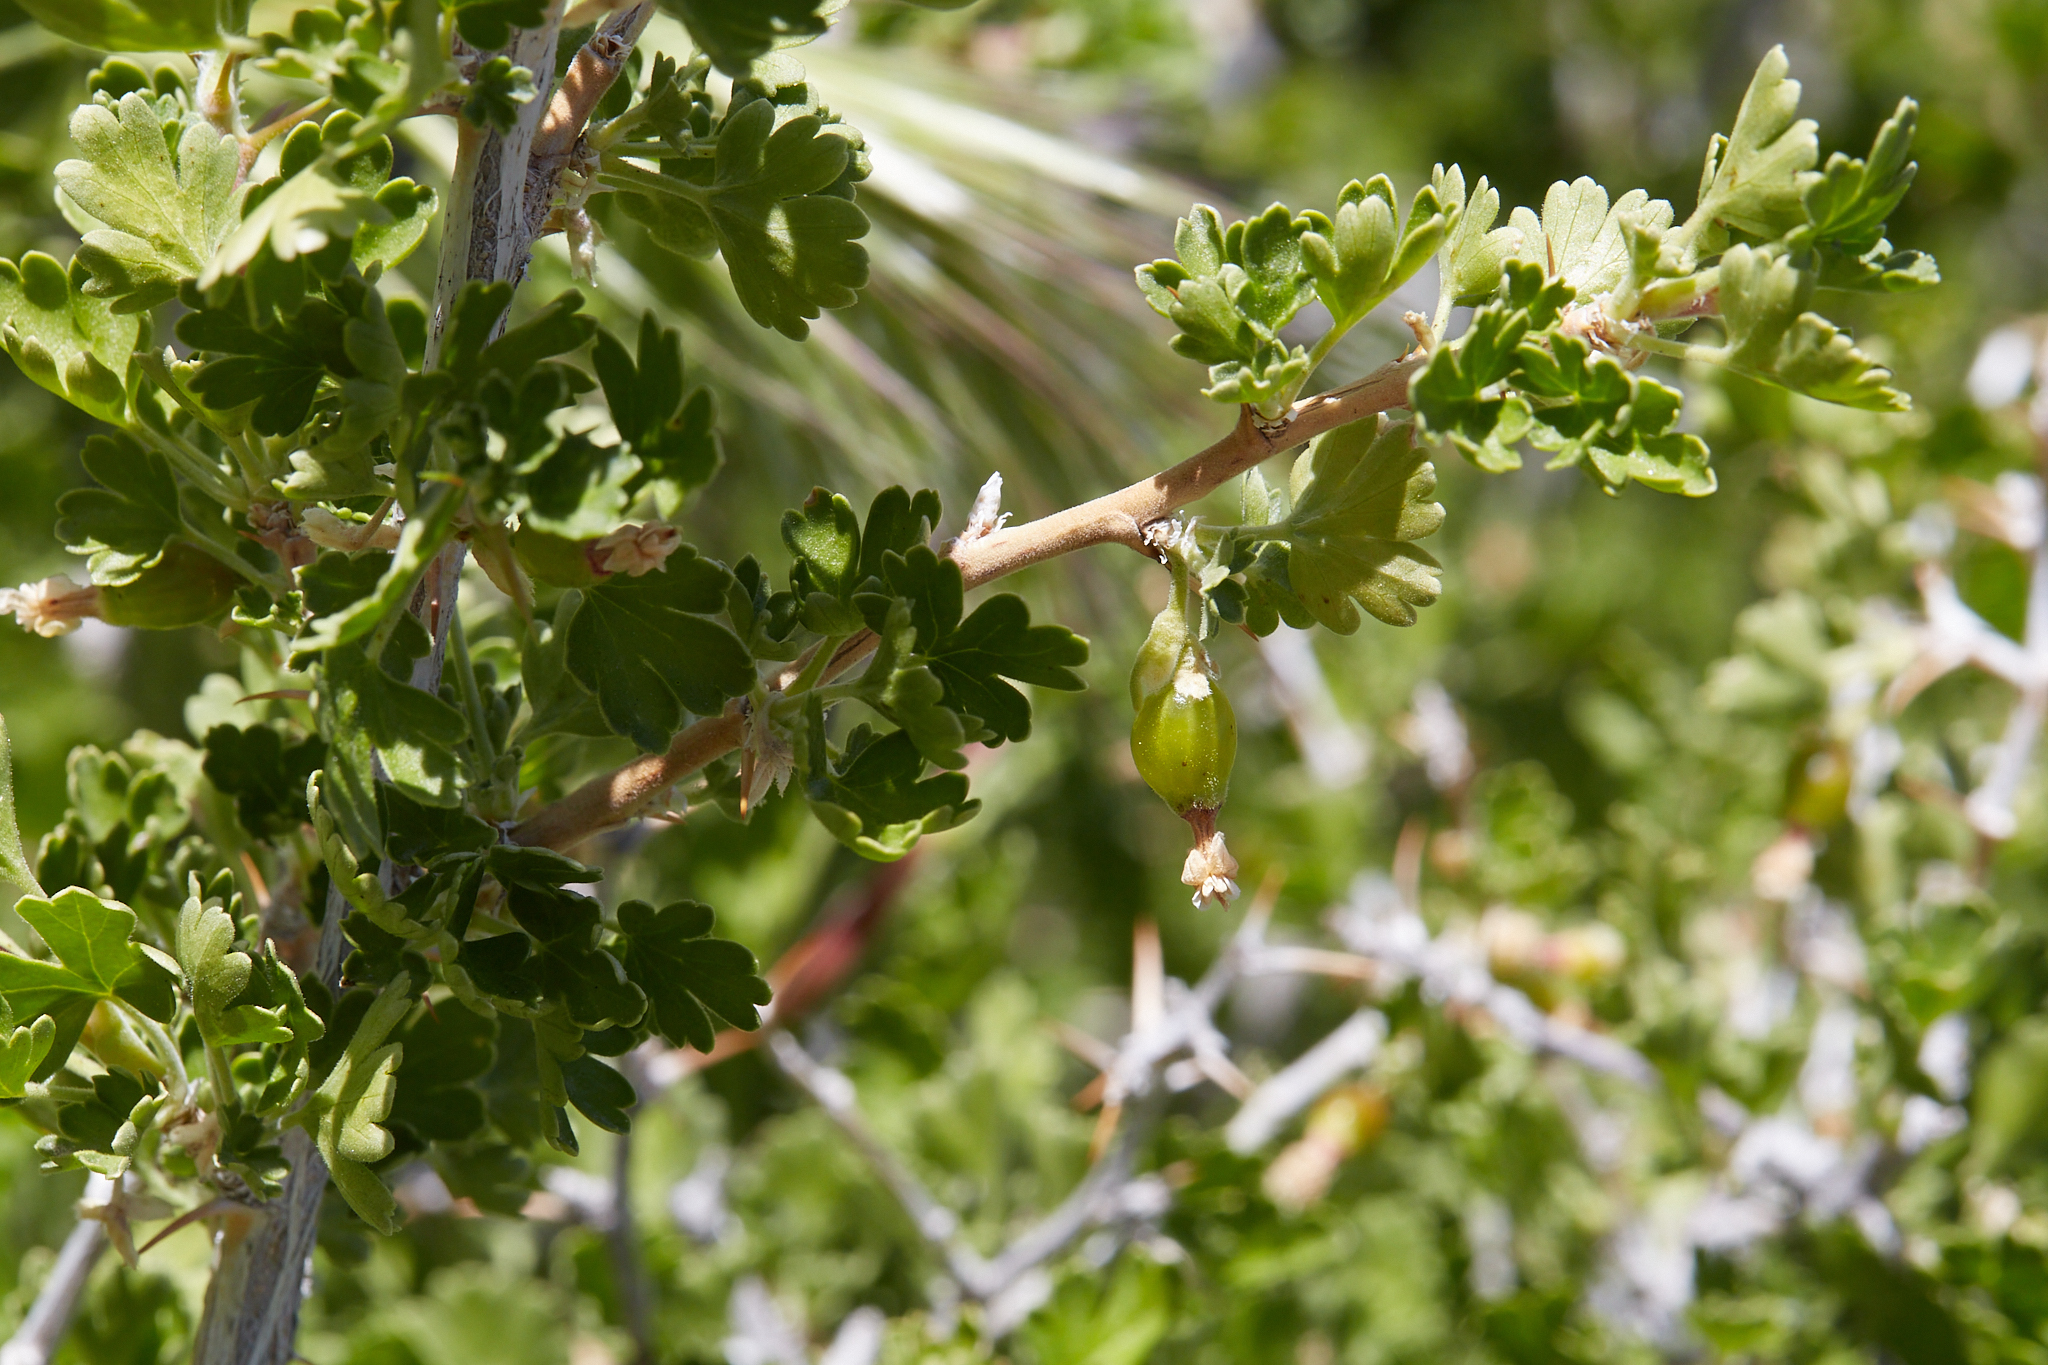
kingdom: Plantae
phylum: Tracheophyta
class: Magnoliopsida
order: Saxifragales
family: Grossulariaceae
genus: Ribes
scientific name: Ribes quercetorum
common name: Oak gooseberry
